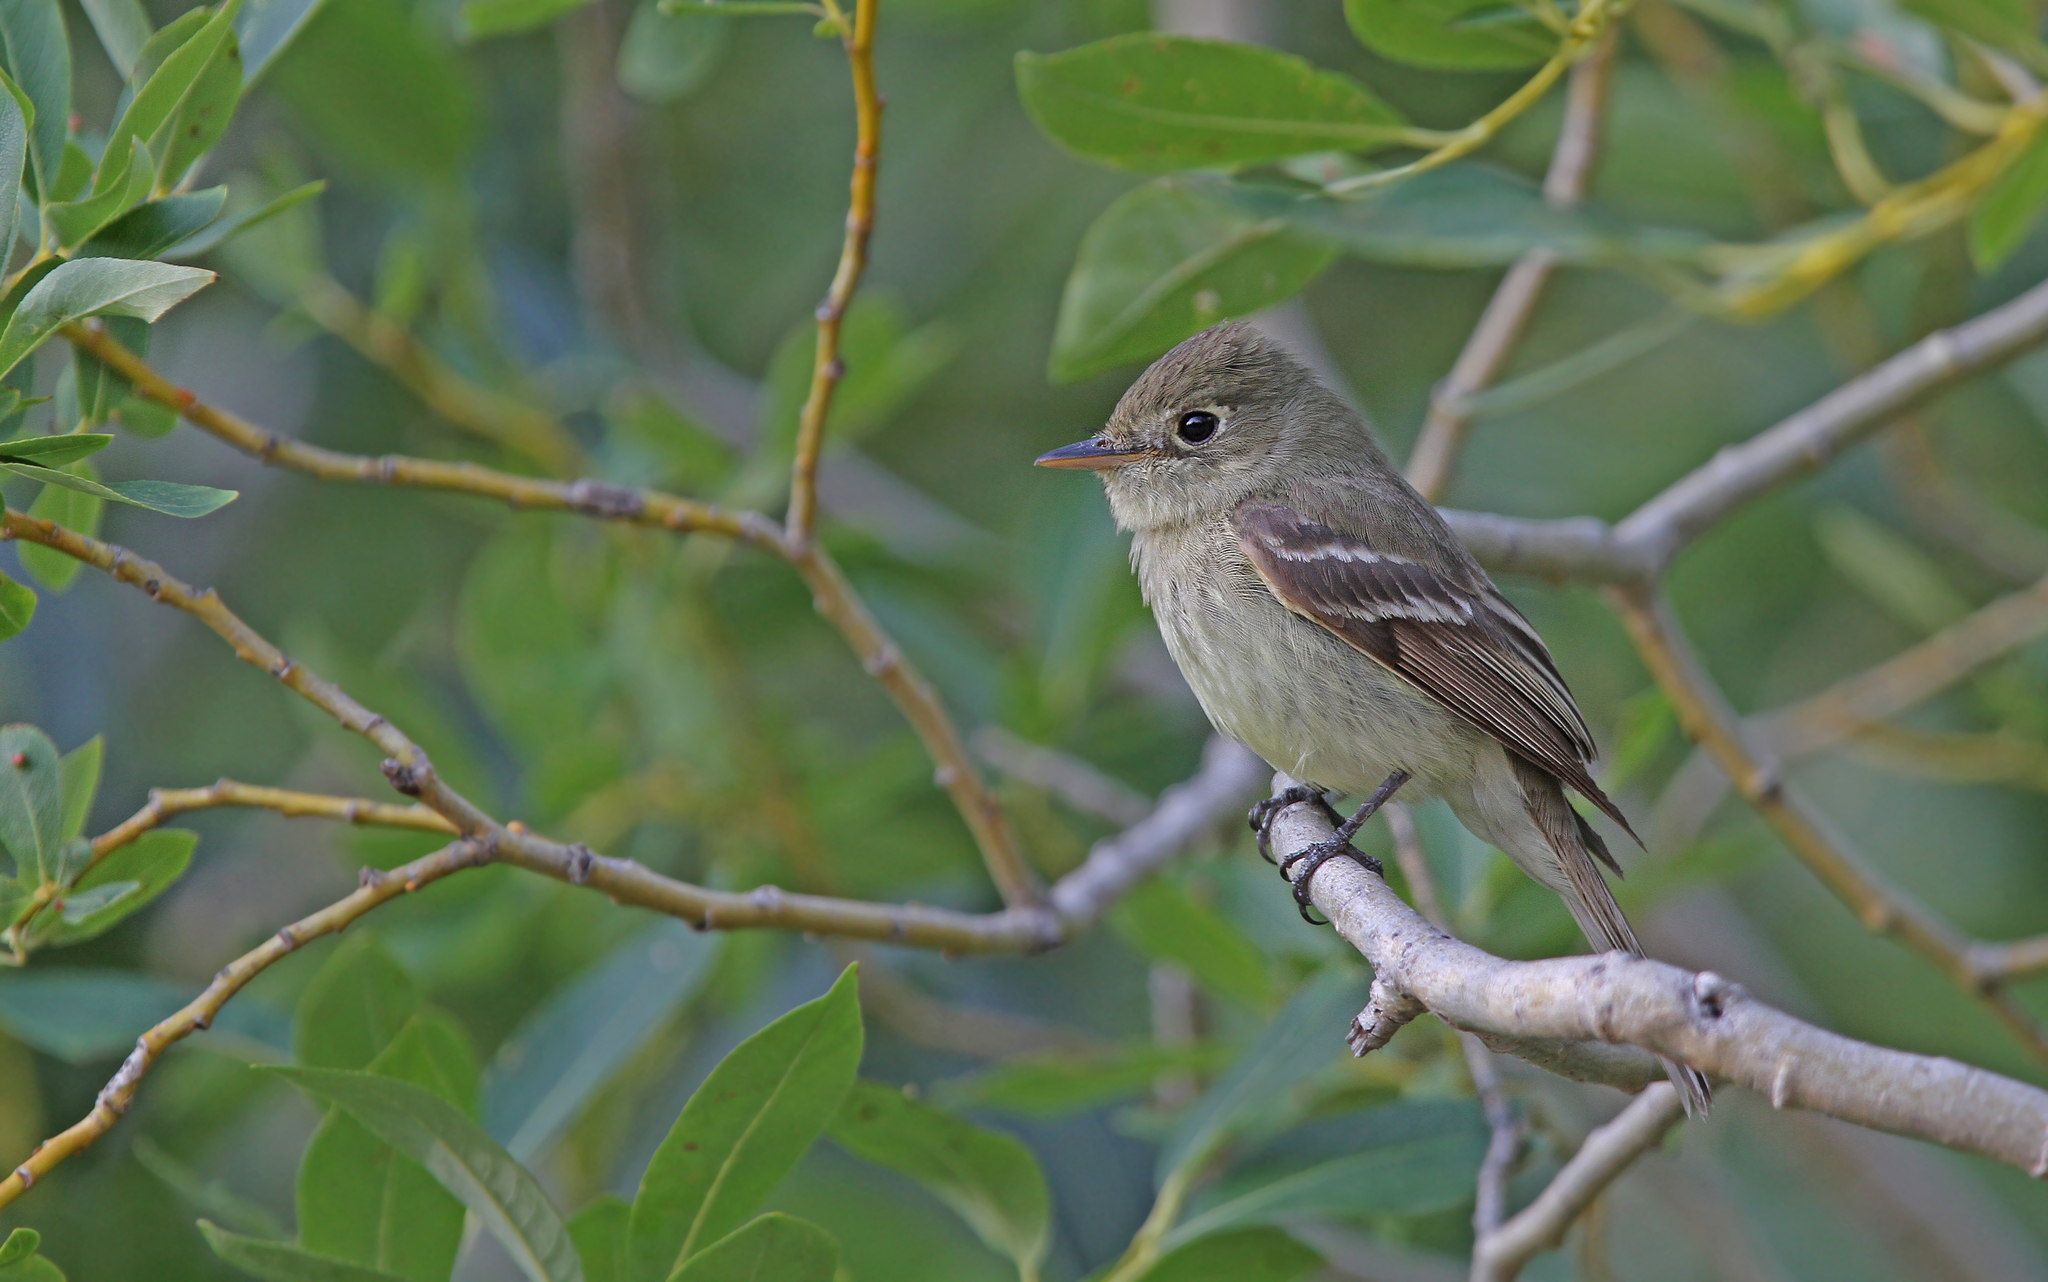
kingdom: Animalia
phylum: Chordata
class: Aves
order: Passeriformes
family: Tyrannidae
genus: Empidonax
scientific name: Empidonax difficilis
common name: Pacific-slope flycatcher
